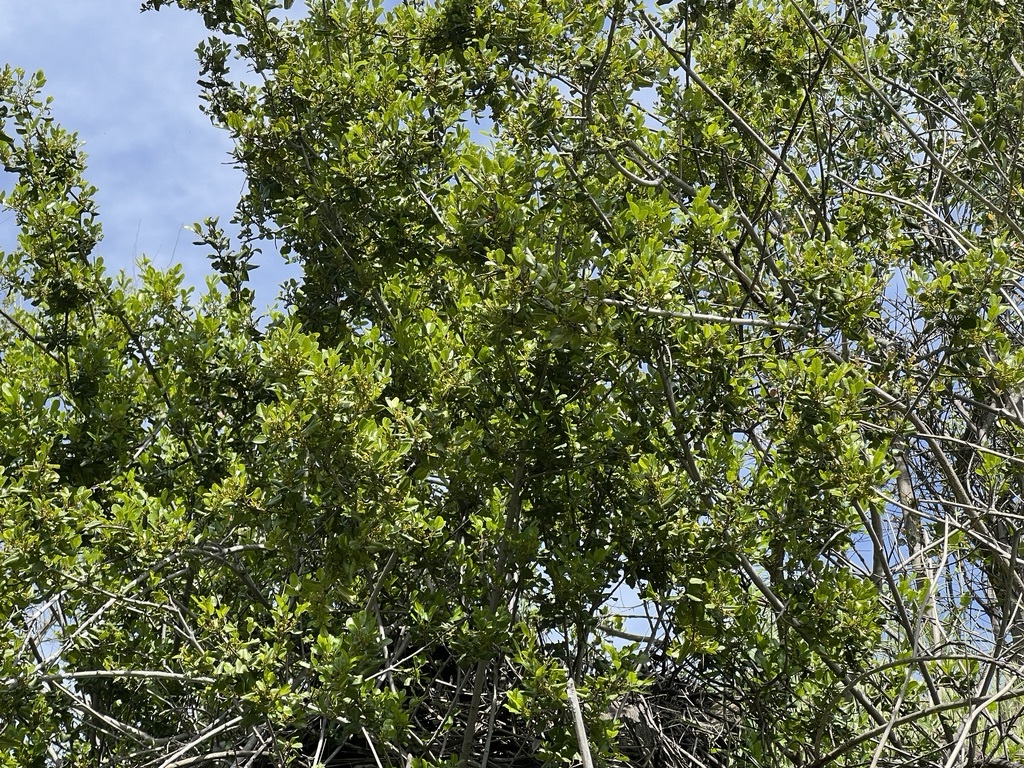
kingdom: Plantae
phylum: Tracheophyta
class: Magnoliopsida
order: Rosales
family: Rhamnaceae
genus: Endotropis
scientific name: Endotropis crocea
